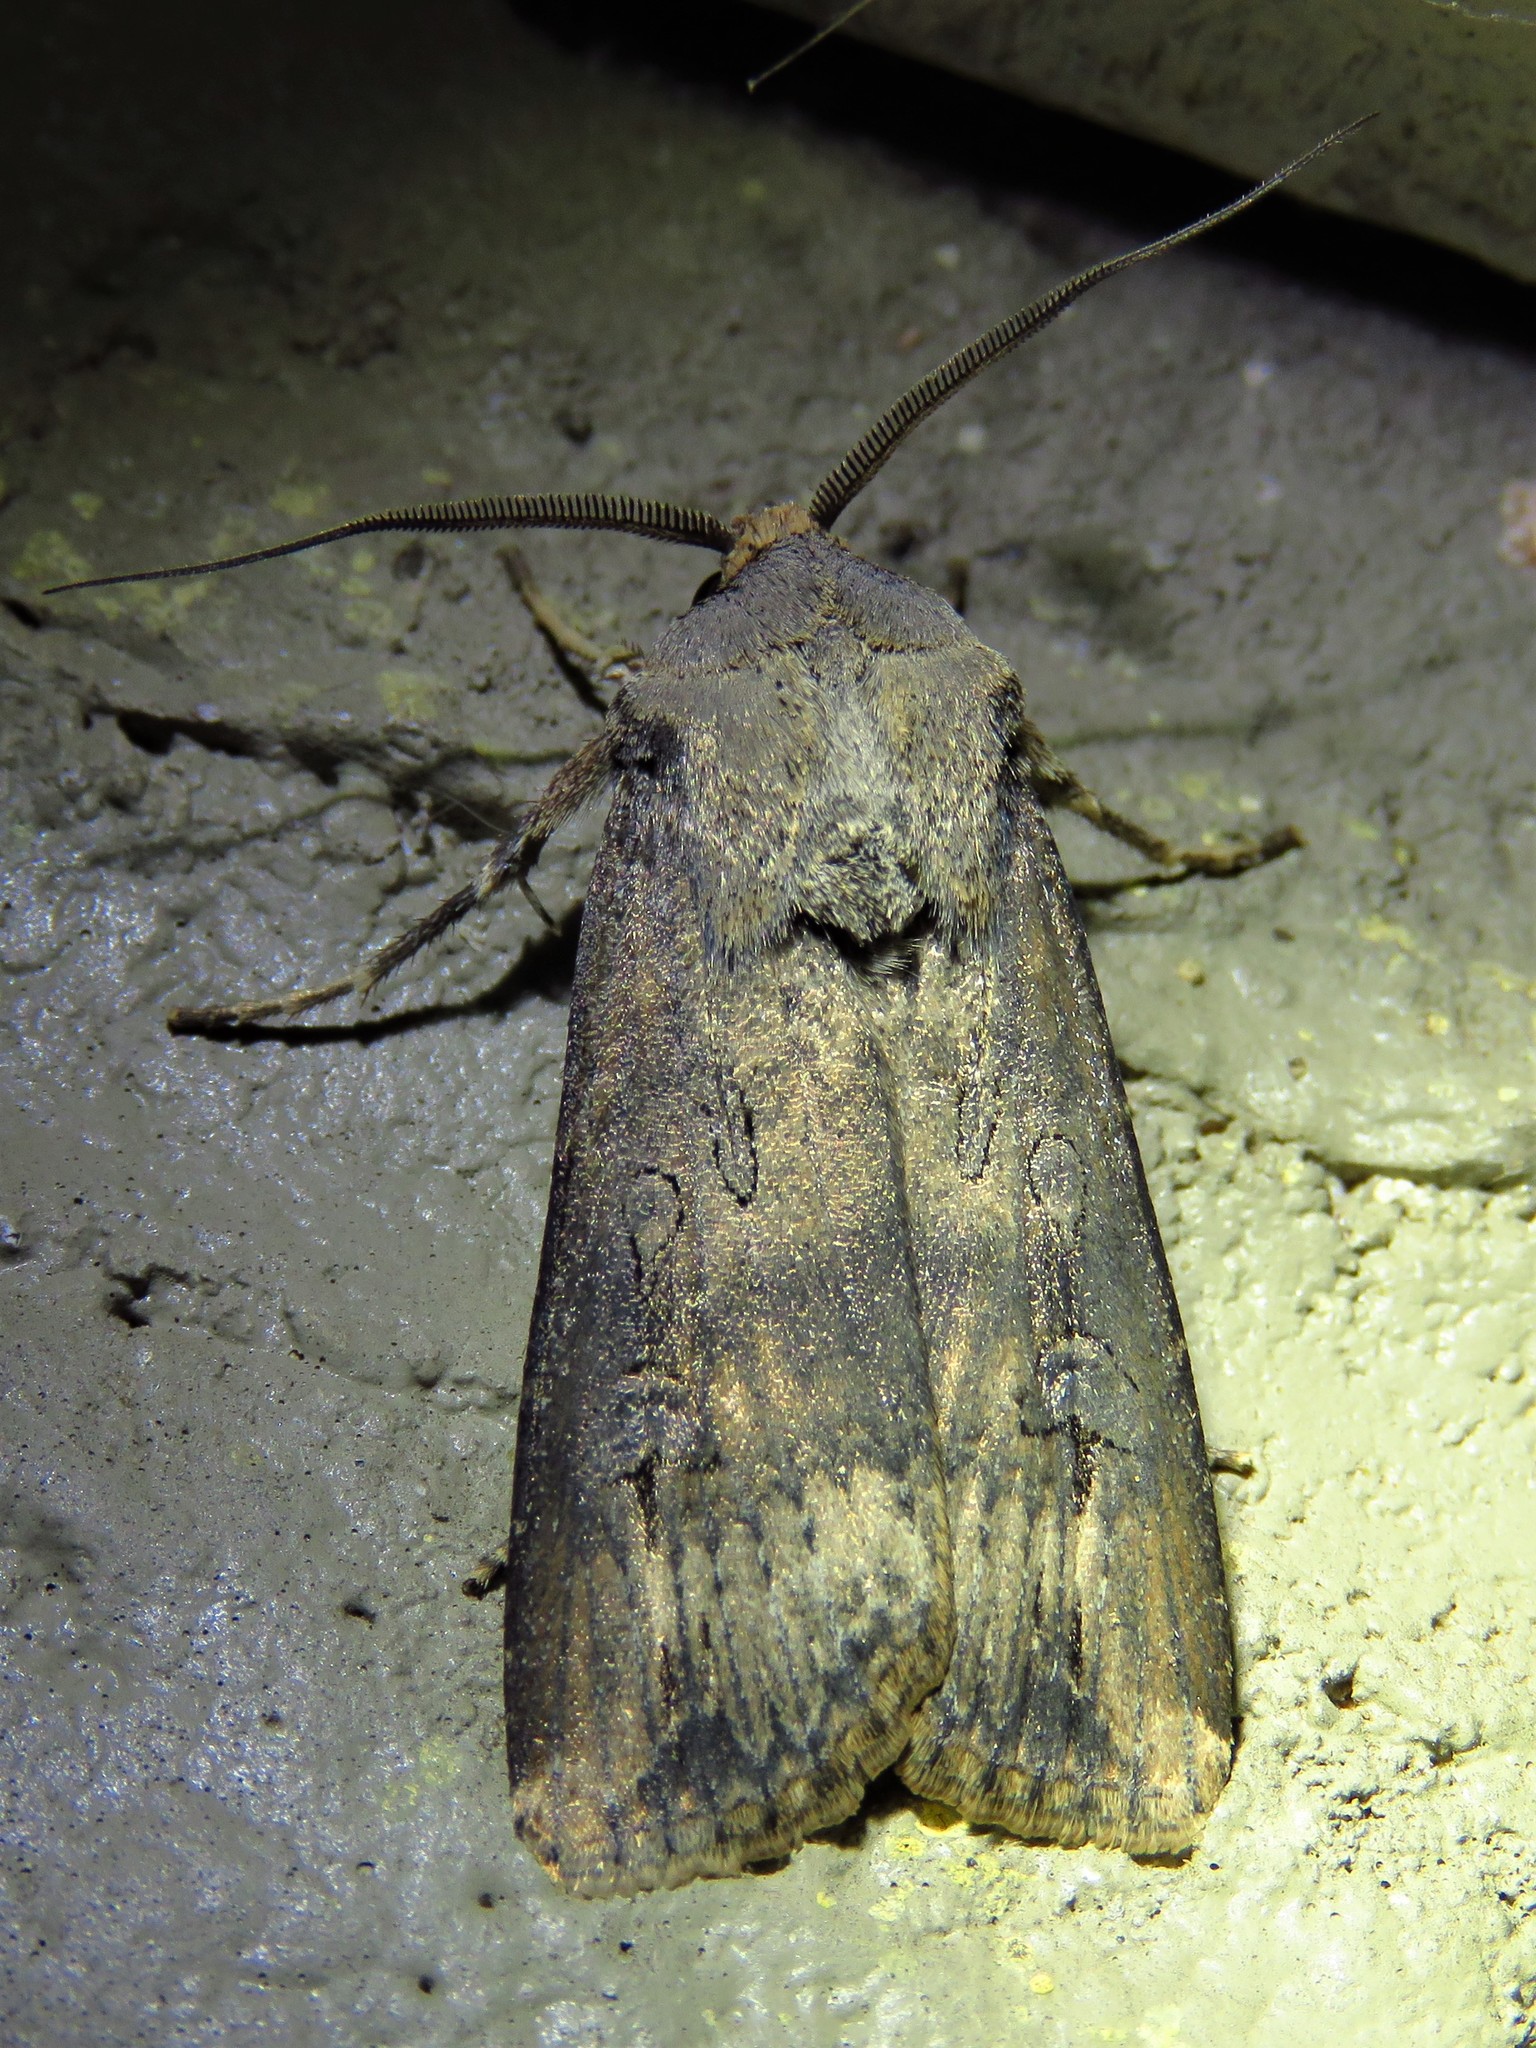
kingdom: Animalia
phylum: Arthropoda
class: Insecta
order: Lepidoptera
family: Noctuidae
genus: Agrotis
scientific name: Agrotis ipsilon
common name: Dark sword-grass
